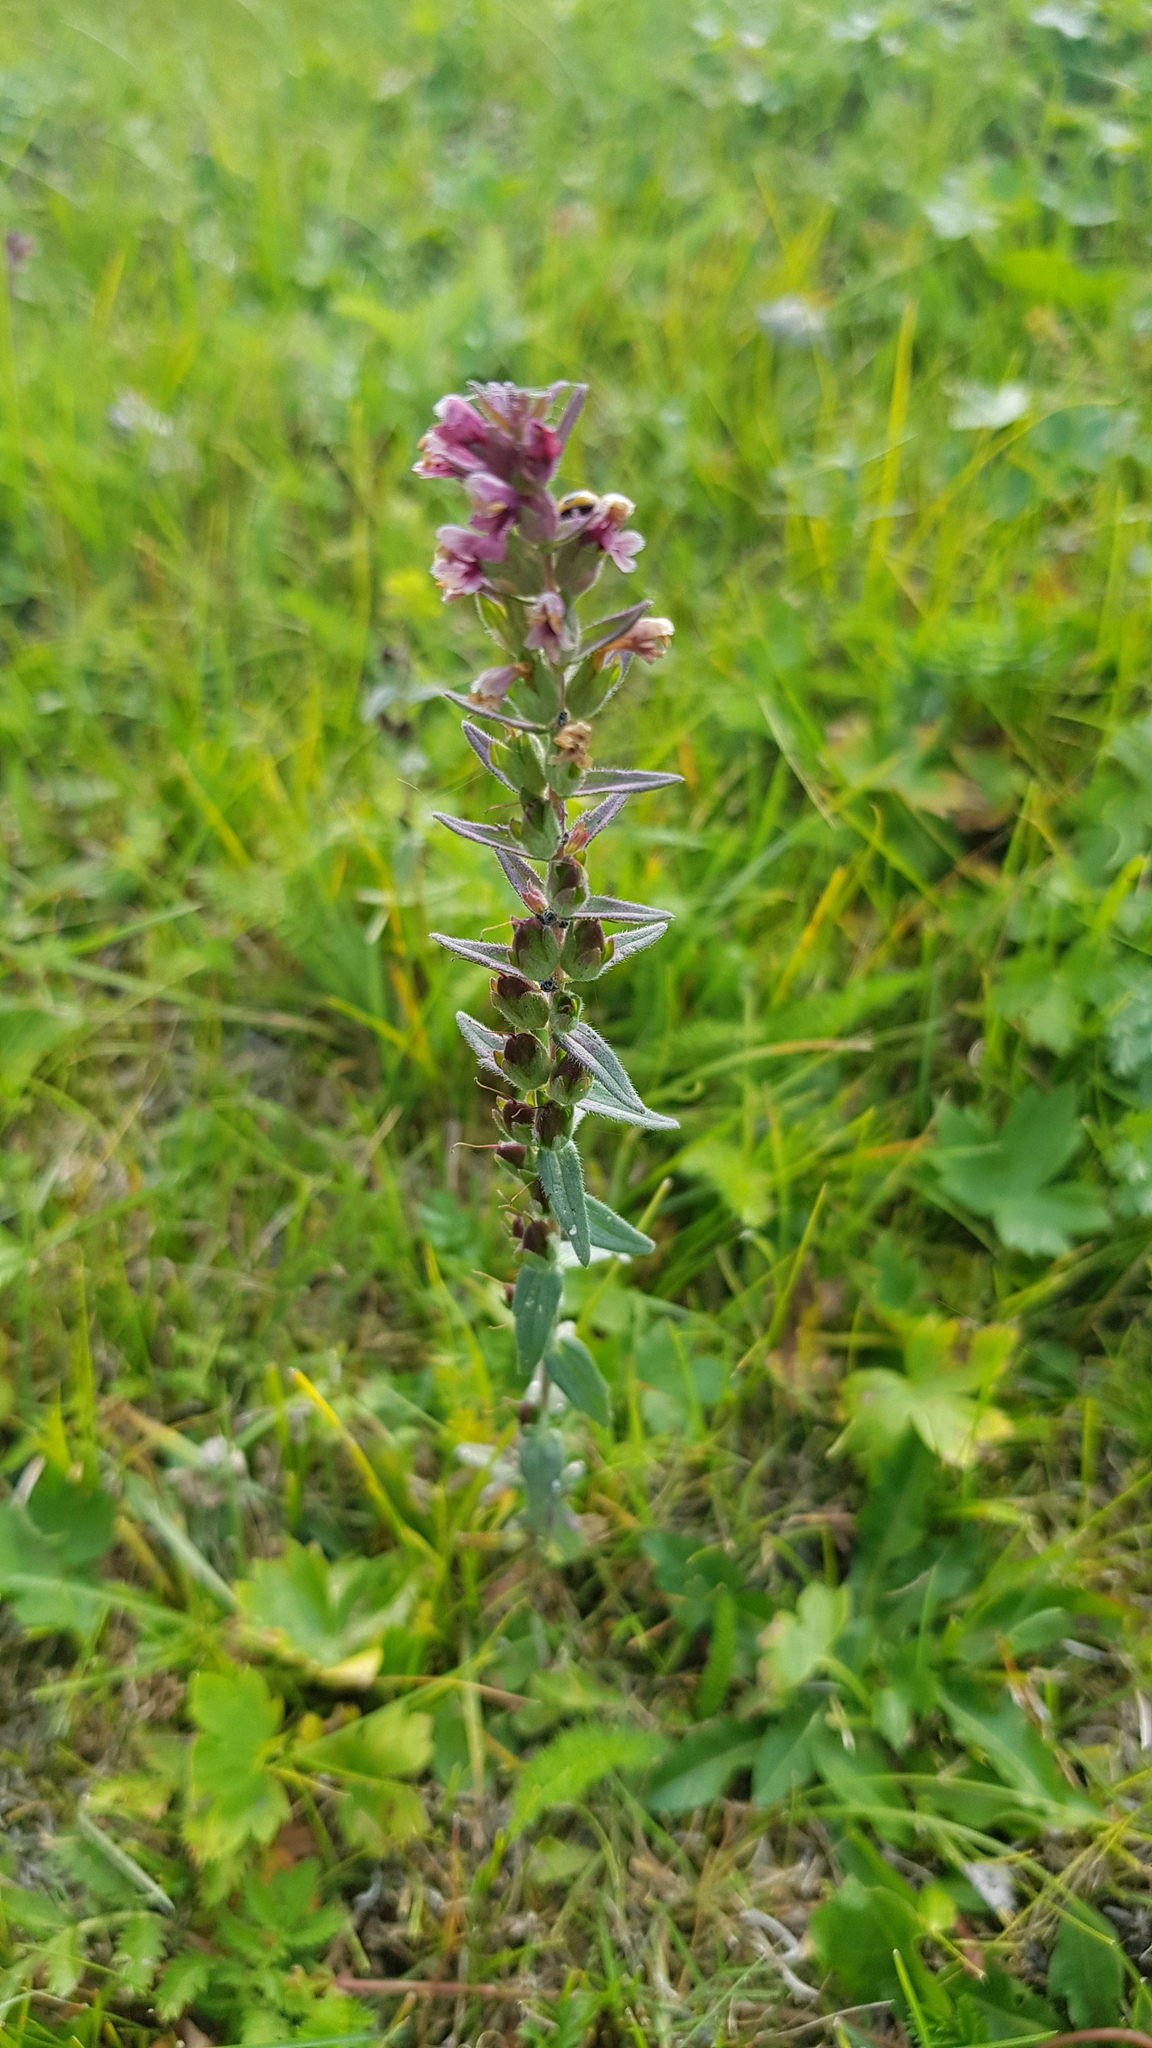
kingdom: Plantae
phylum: Tracheophyta
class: Magnoliopsida
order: Lamiales
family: Orobanchaceae
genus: Odontites
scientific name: Odontites vulgaris
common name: Broomrape
